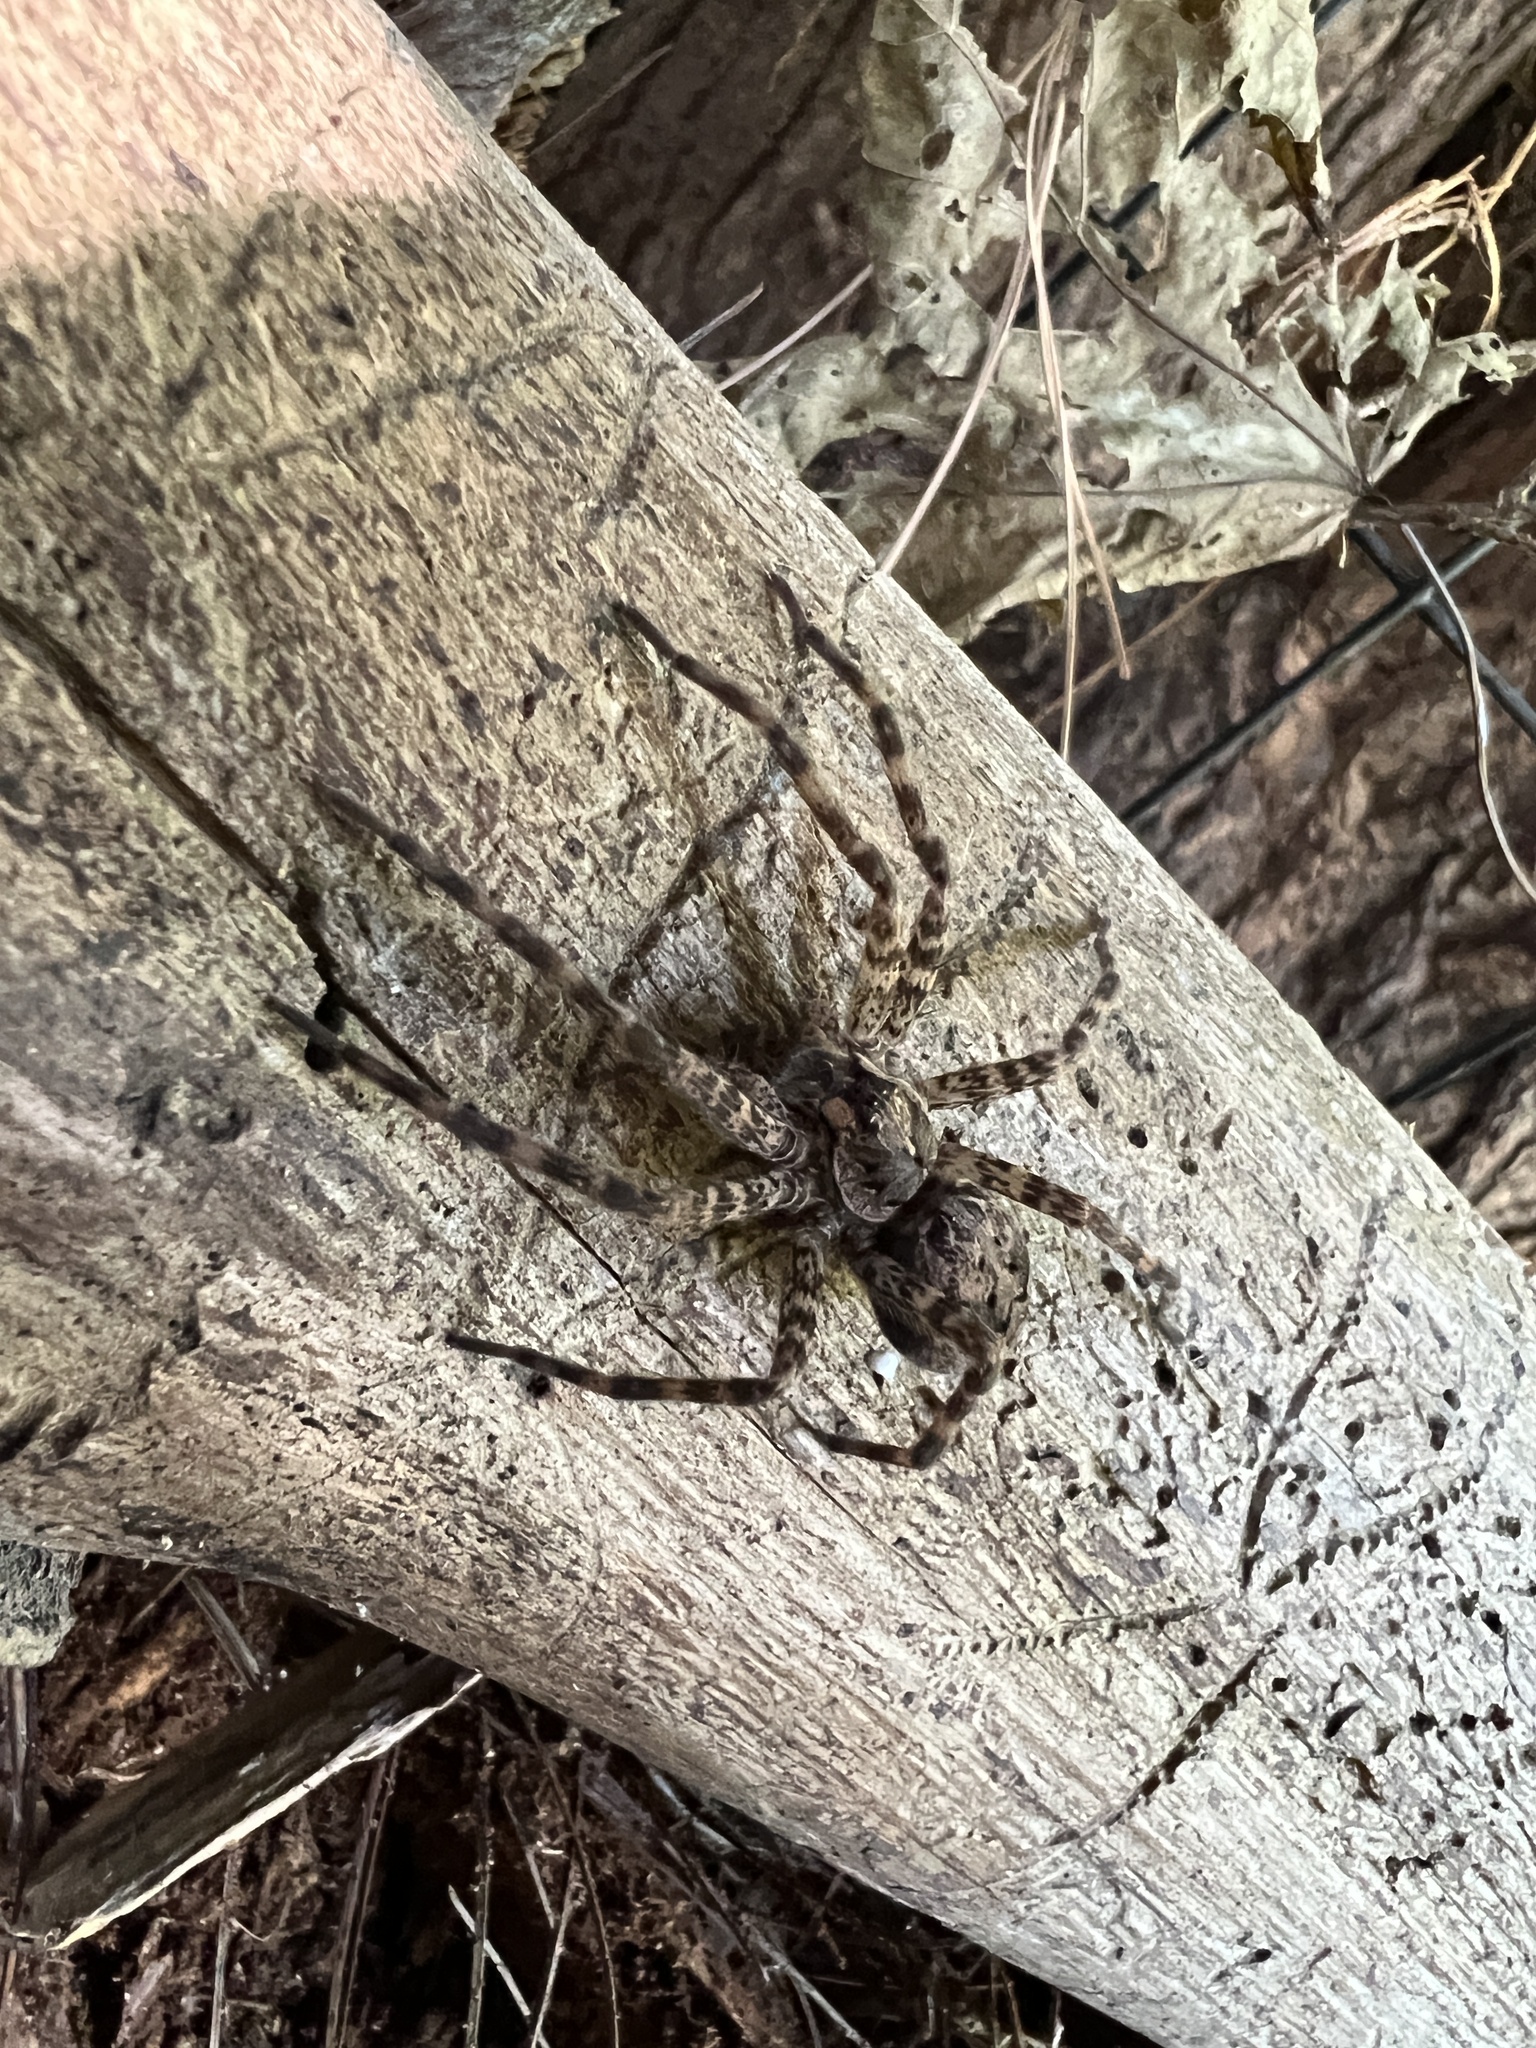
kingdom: Animalia
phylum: Arthropoda
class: Arachnida
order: Araneae
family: Pisauridae
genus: Dolomedes
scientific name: Dolomedes tenebrosus
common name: Dark fishing spider
